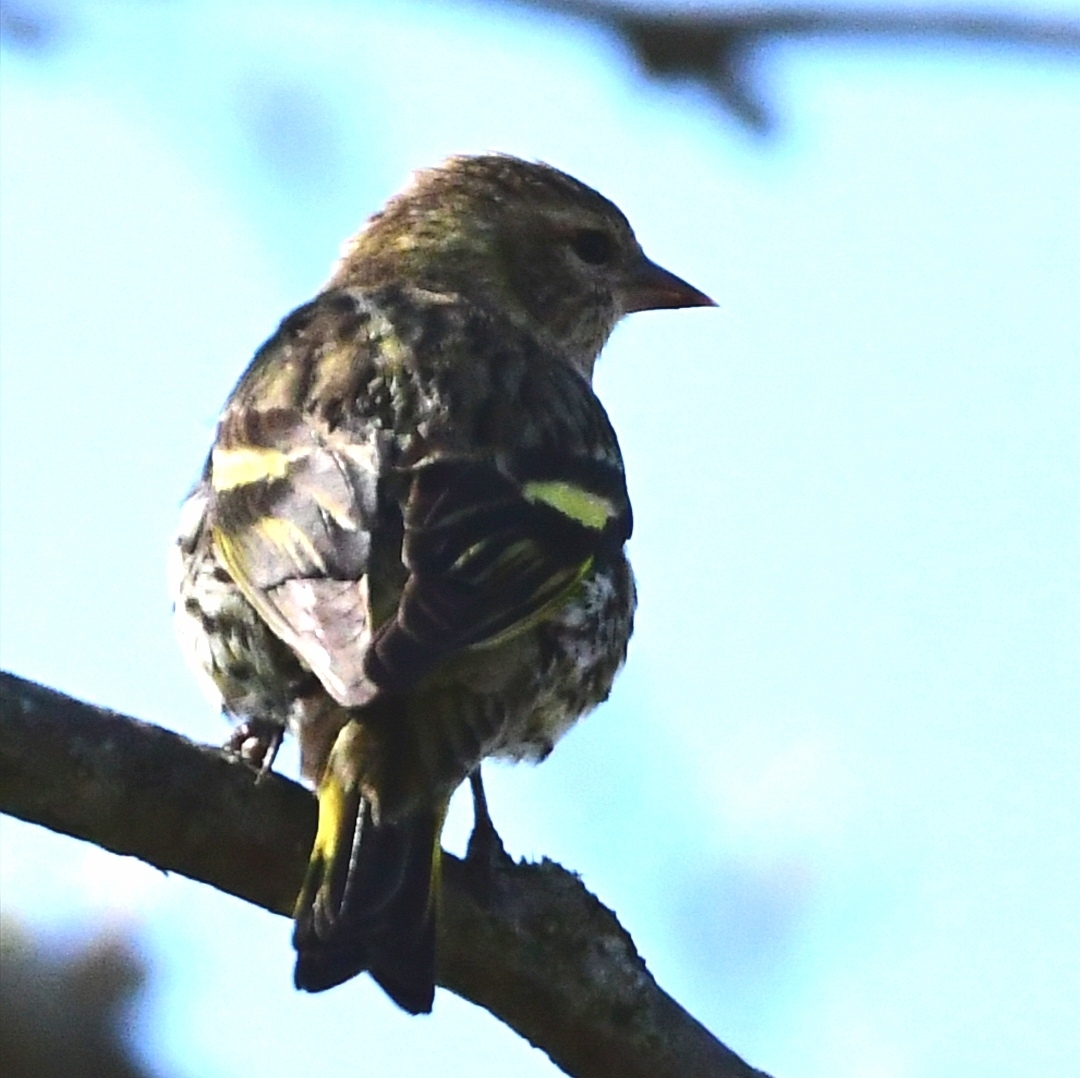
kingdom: Animalia
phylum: Chordata
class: Aves
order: Passeriformes
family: Fringillidae
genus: Spinus
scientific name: Spinus pinus
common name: Pine siskin
